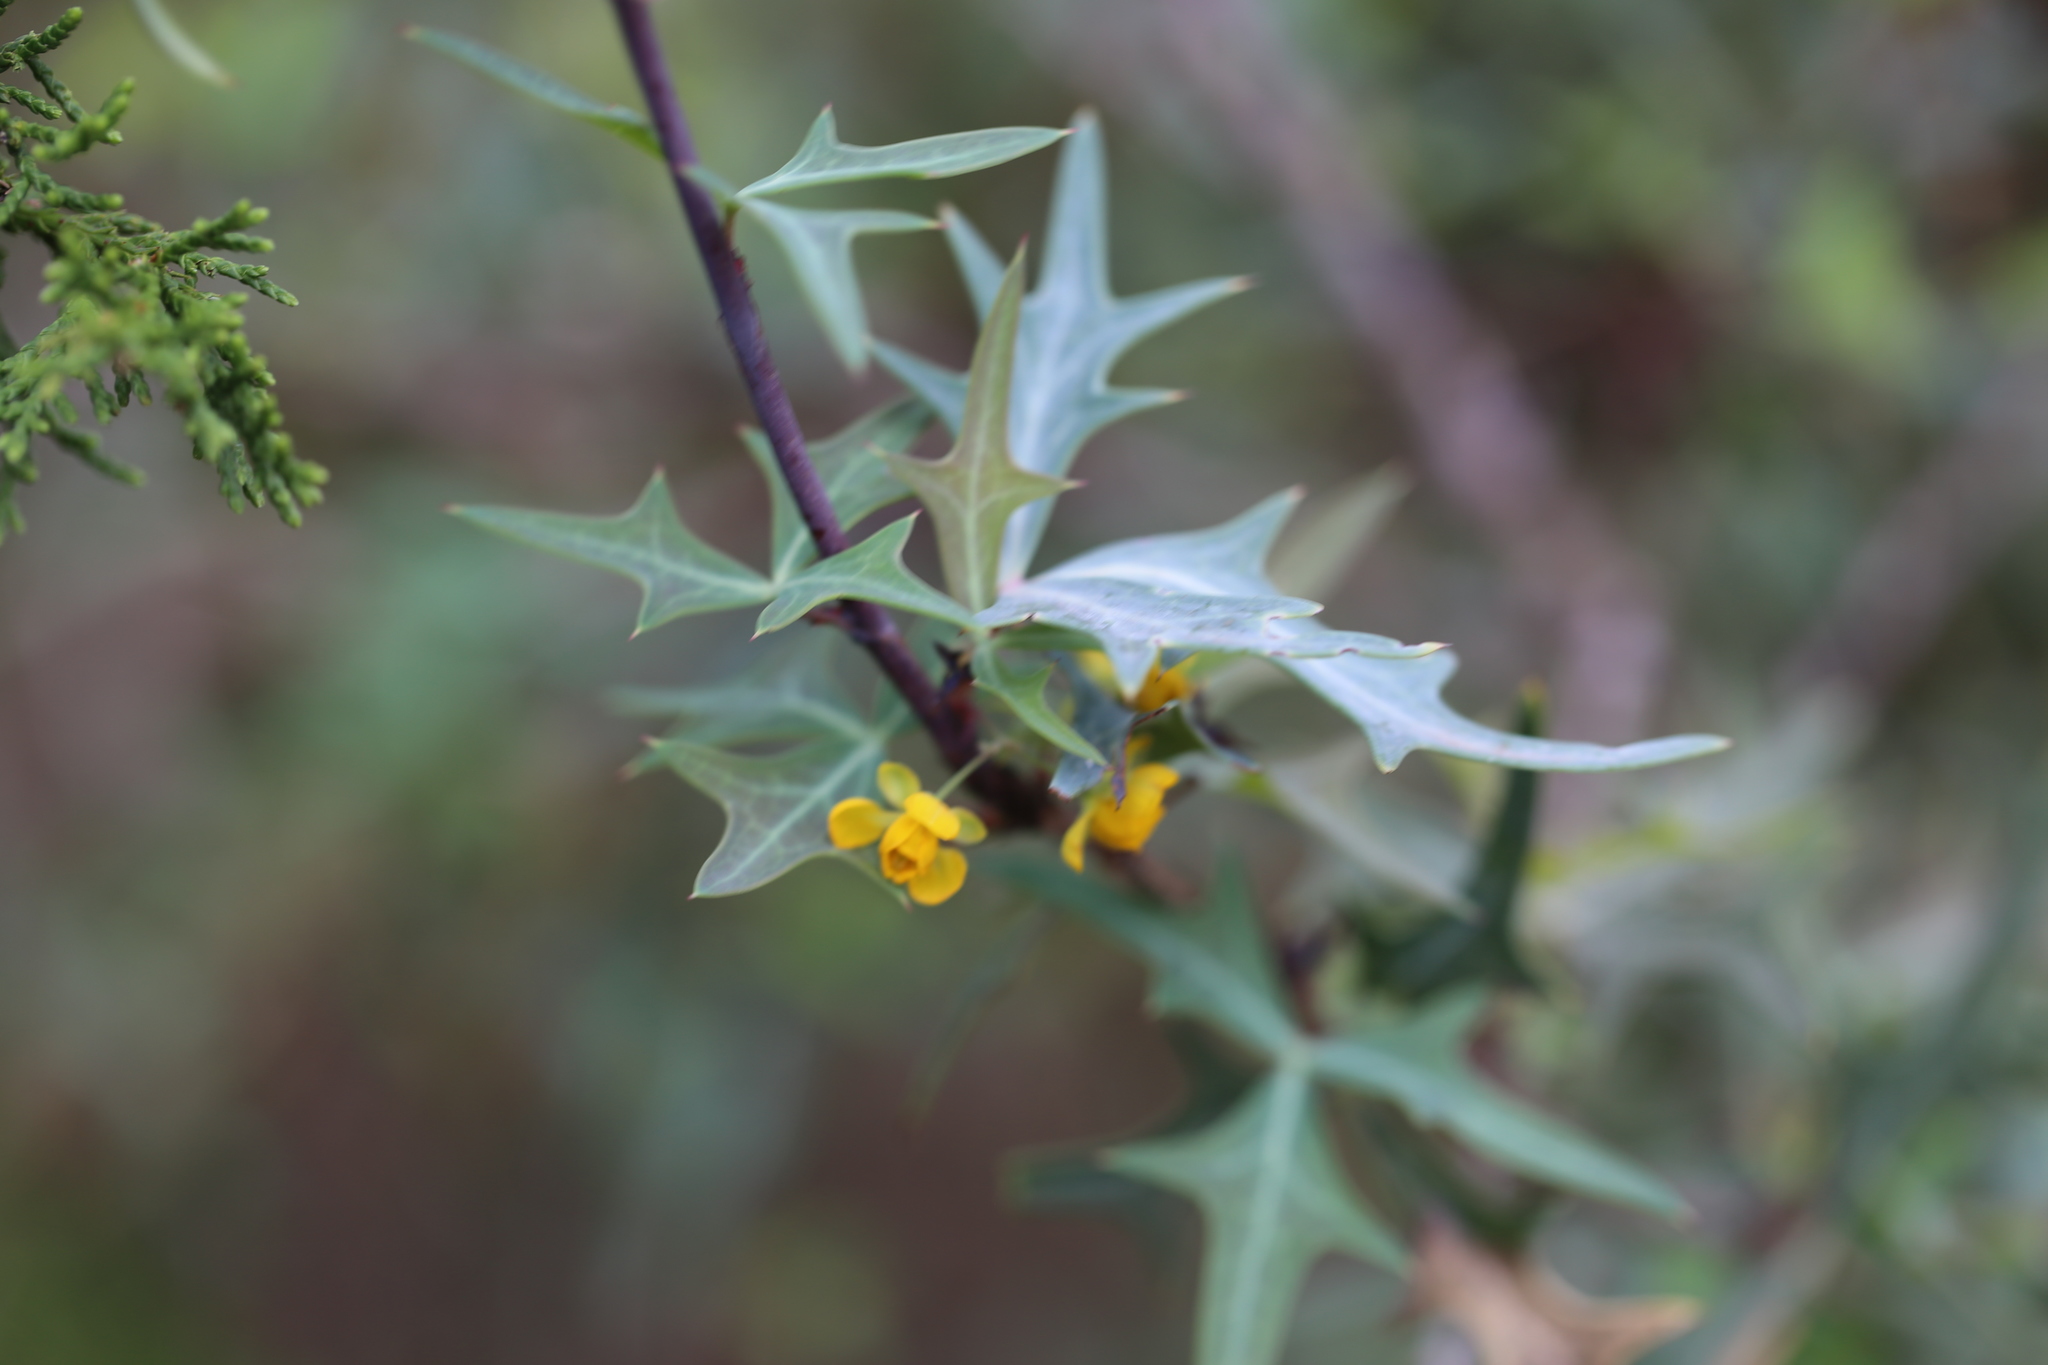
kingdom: Plantae
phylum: Tracheophyta
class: Magnoliopsida
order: Ranunculales
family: Berberidaceae
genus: Alloberberis
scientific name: Alloberberis trifoliolata
